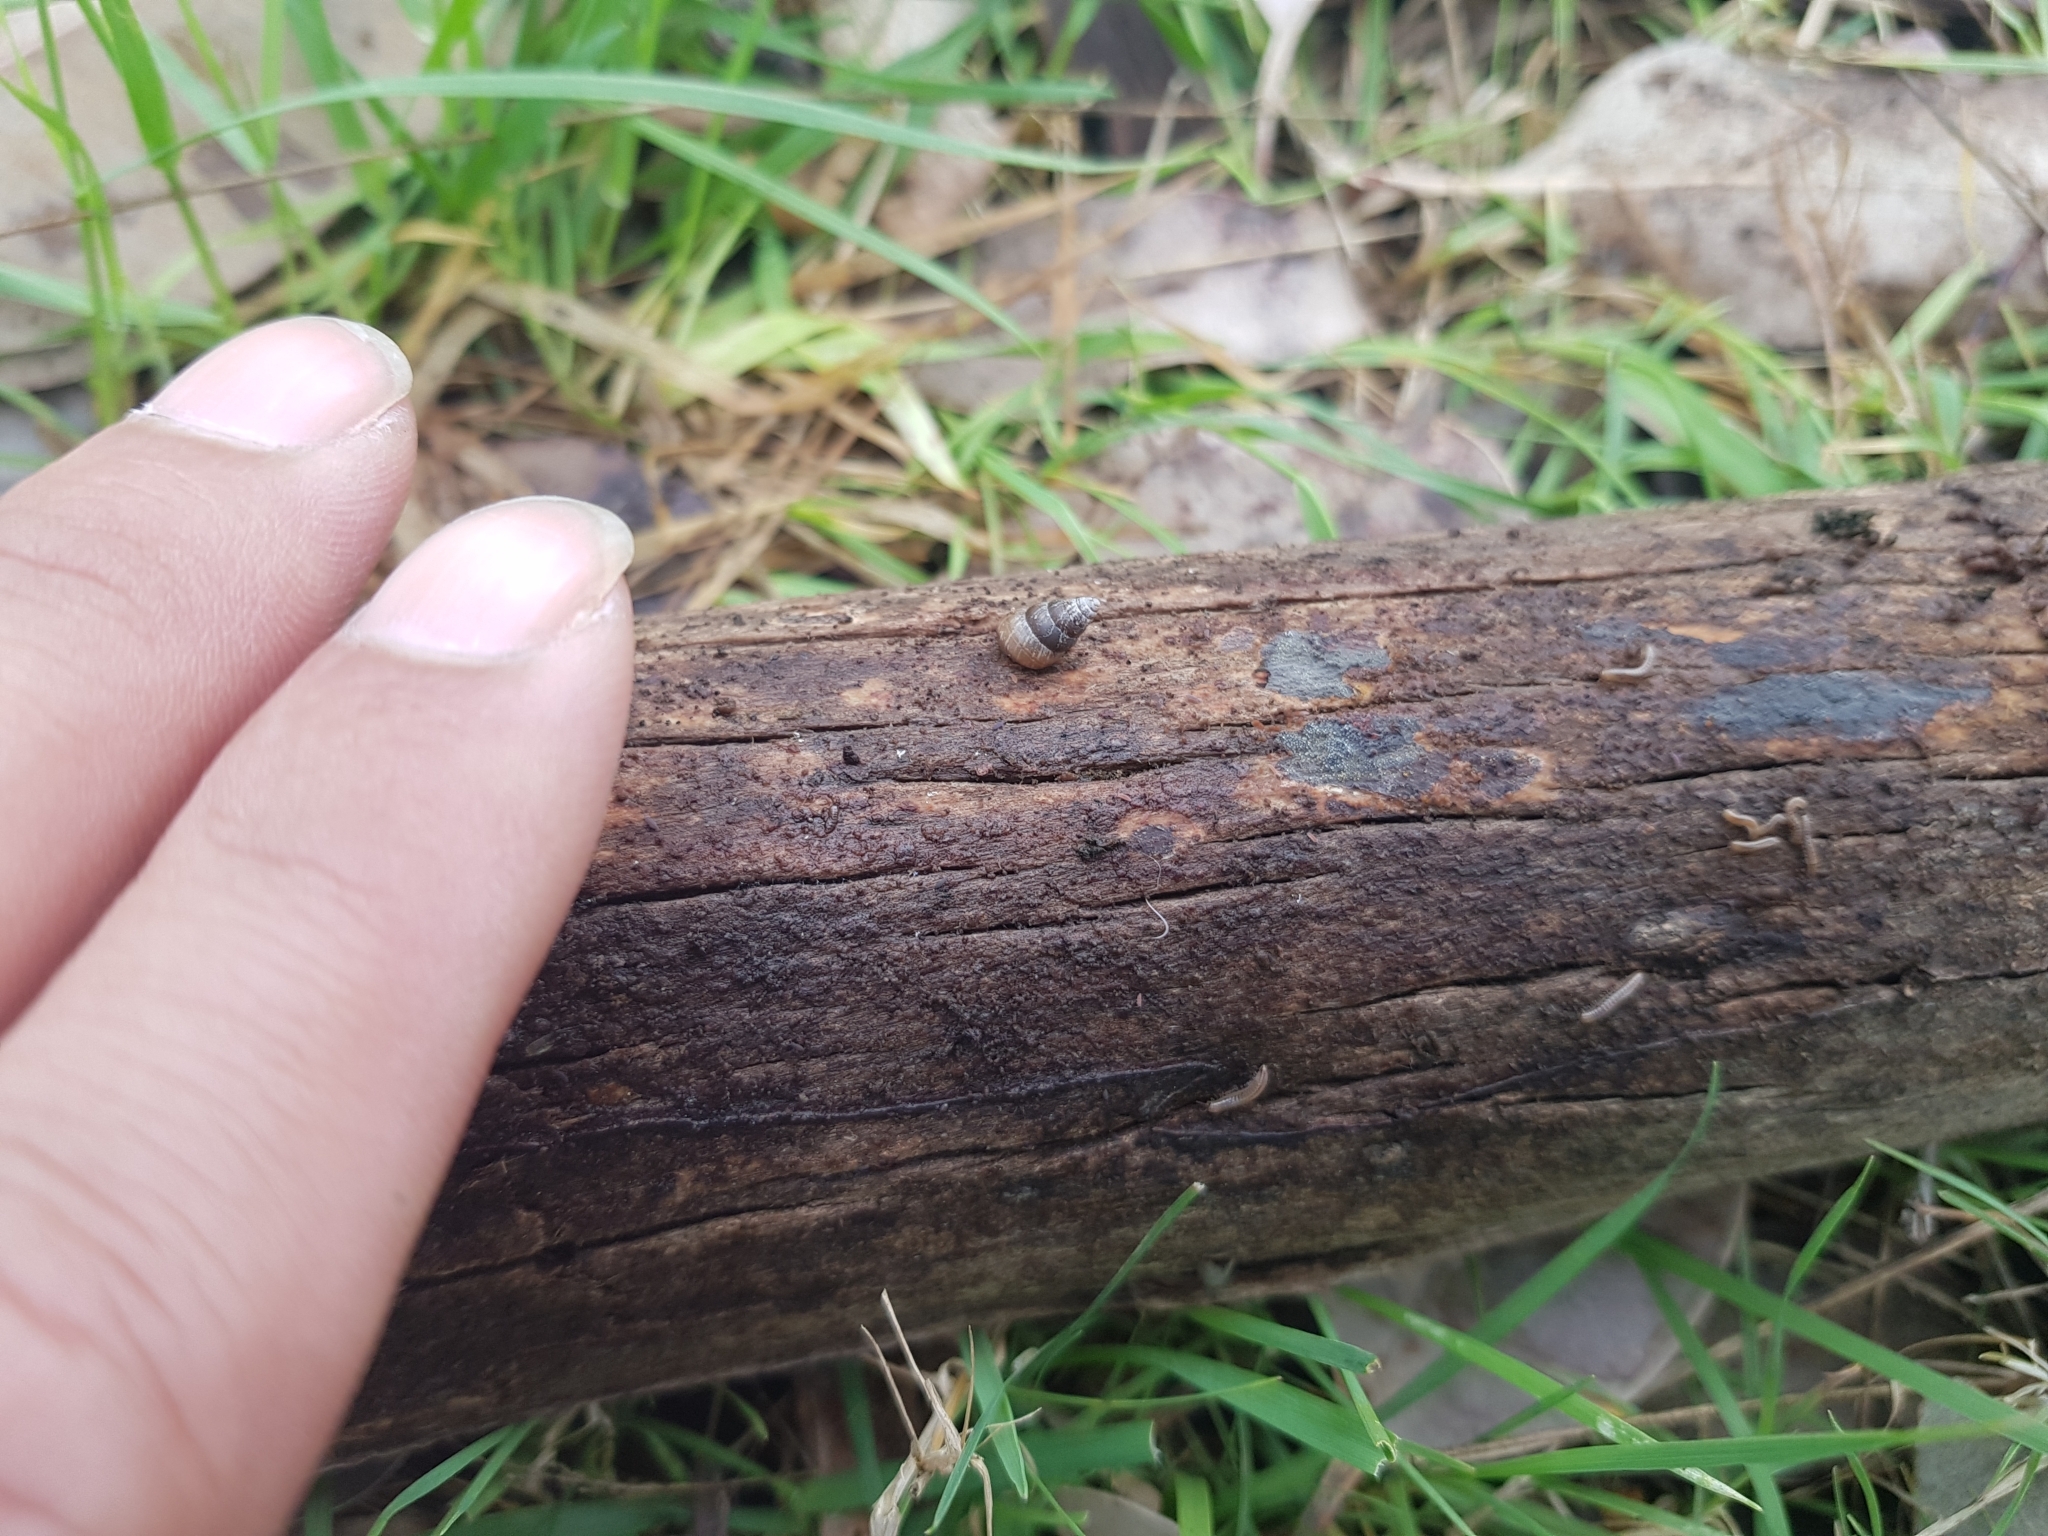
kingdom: Animalia
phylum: Mollusca
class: Gastropoda
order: Stylommatophora
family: Geomitridae
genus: Cochlicella
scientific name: Cochlicella barbara
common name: Potbellied helicellid
